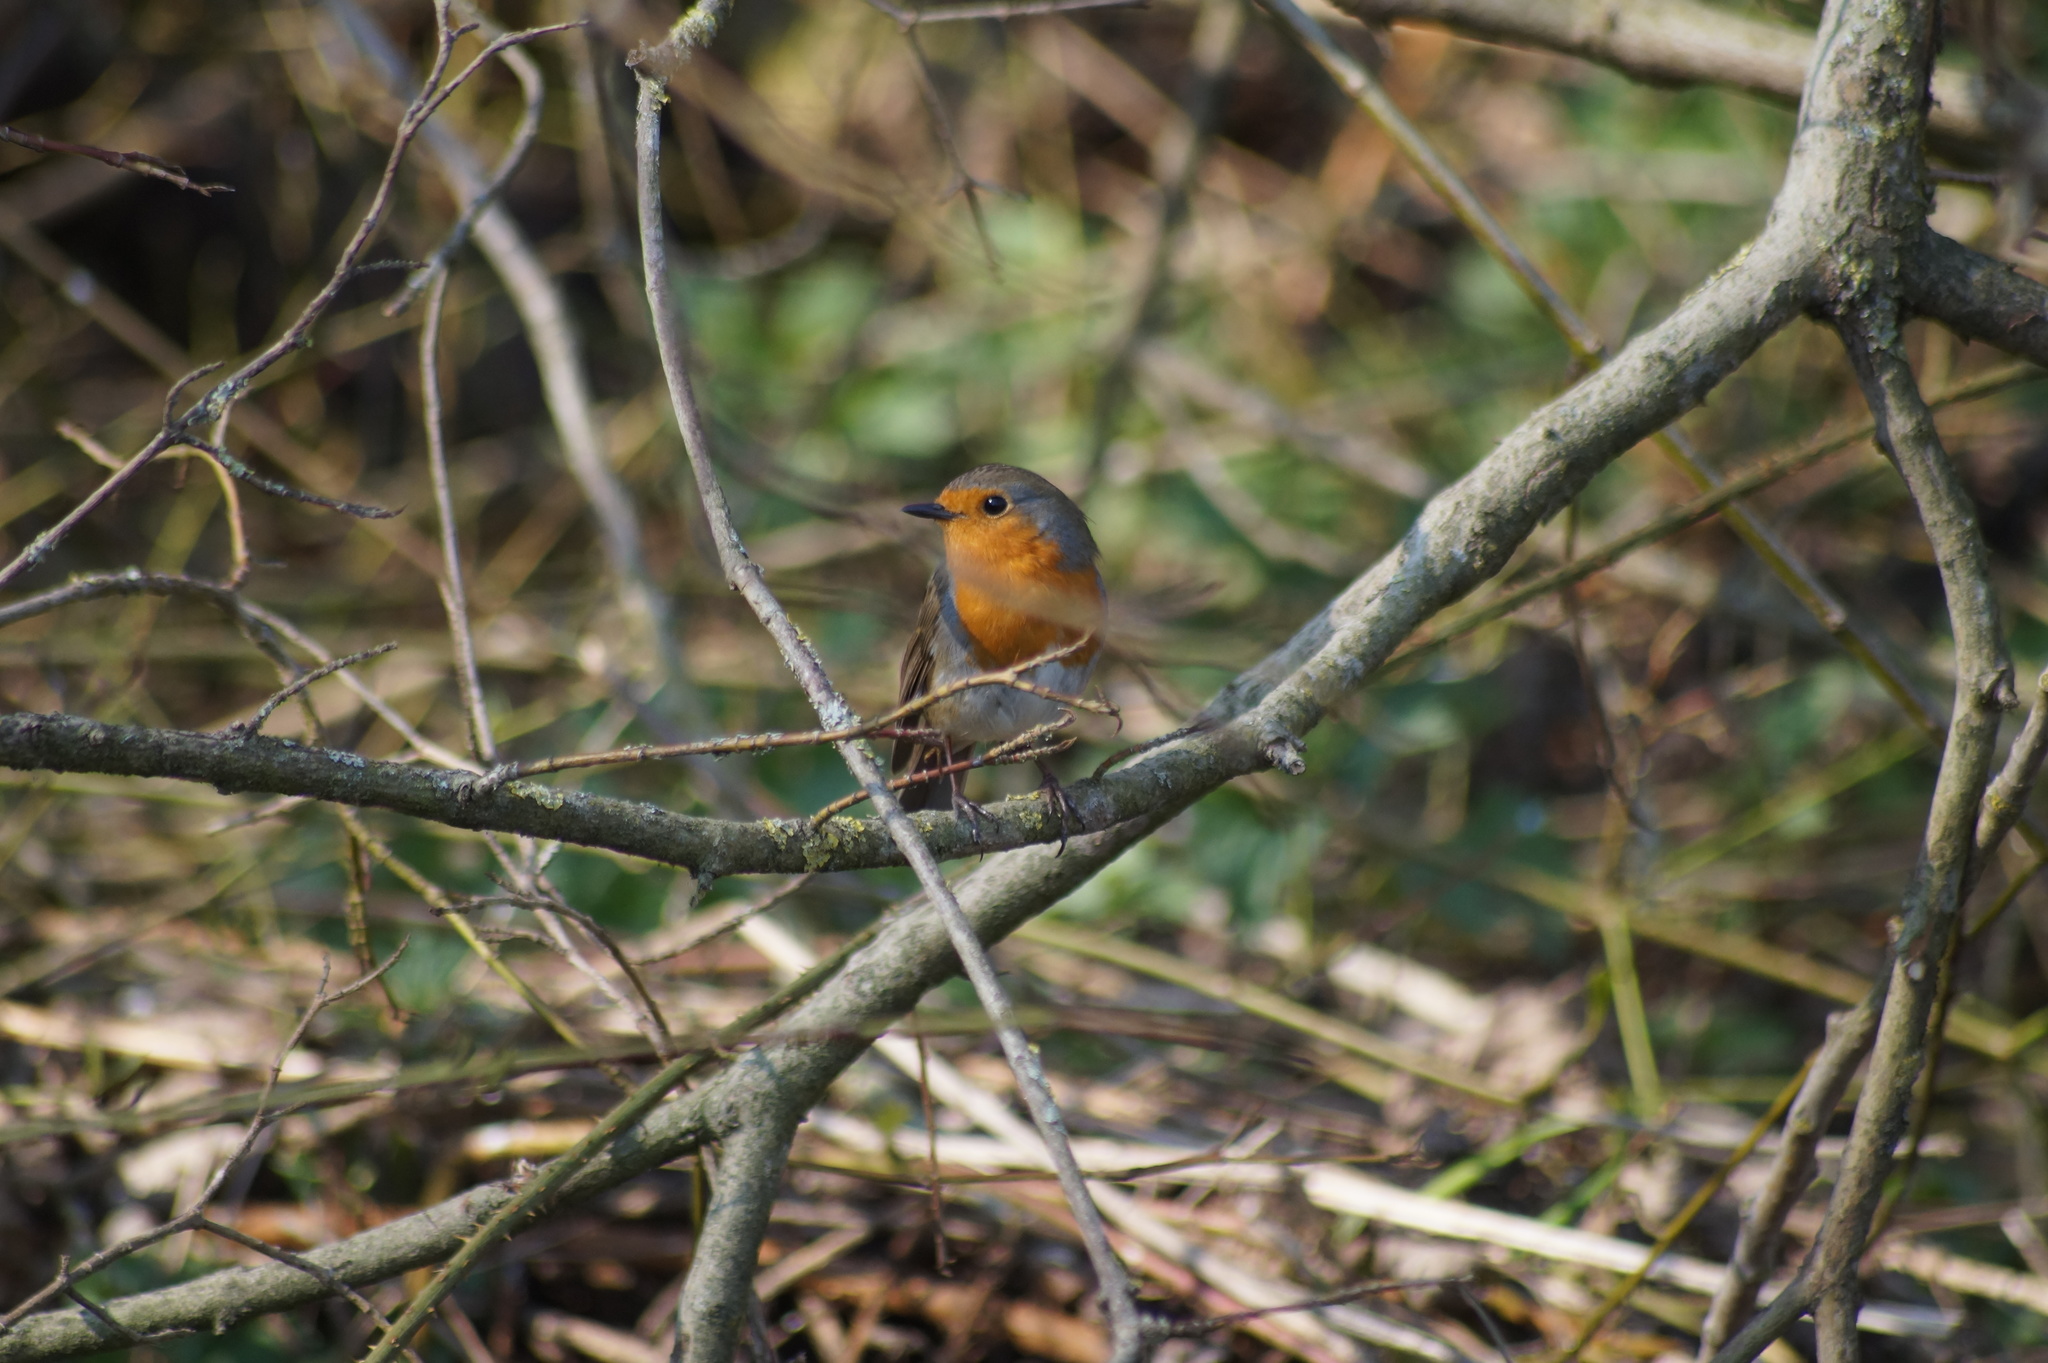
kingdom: Animalia
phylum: Chordata
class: Aves
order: Passeriformes
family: Muscicapidae
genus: Erithacus
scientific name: Erithacus rubecula
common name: European robin
